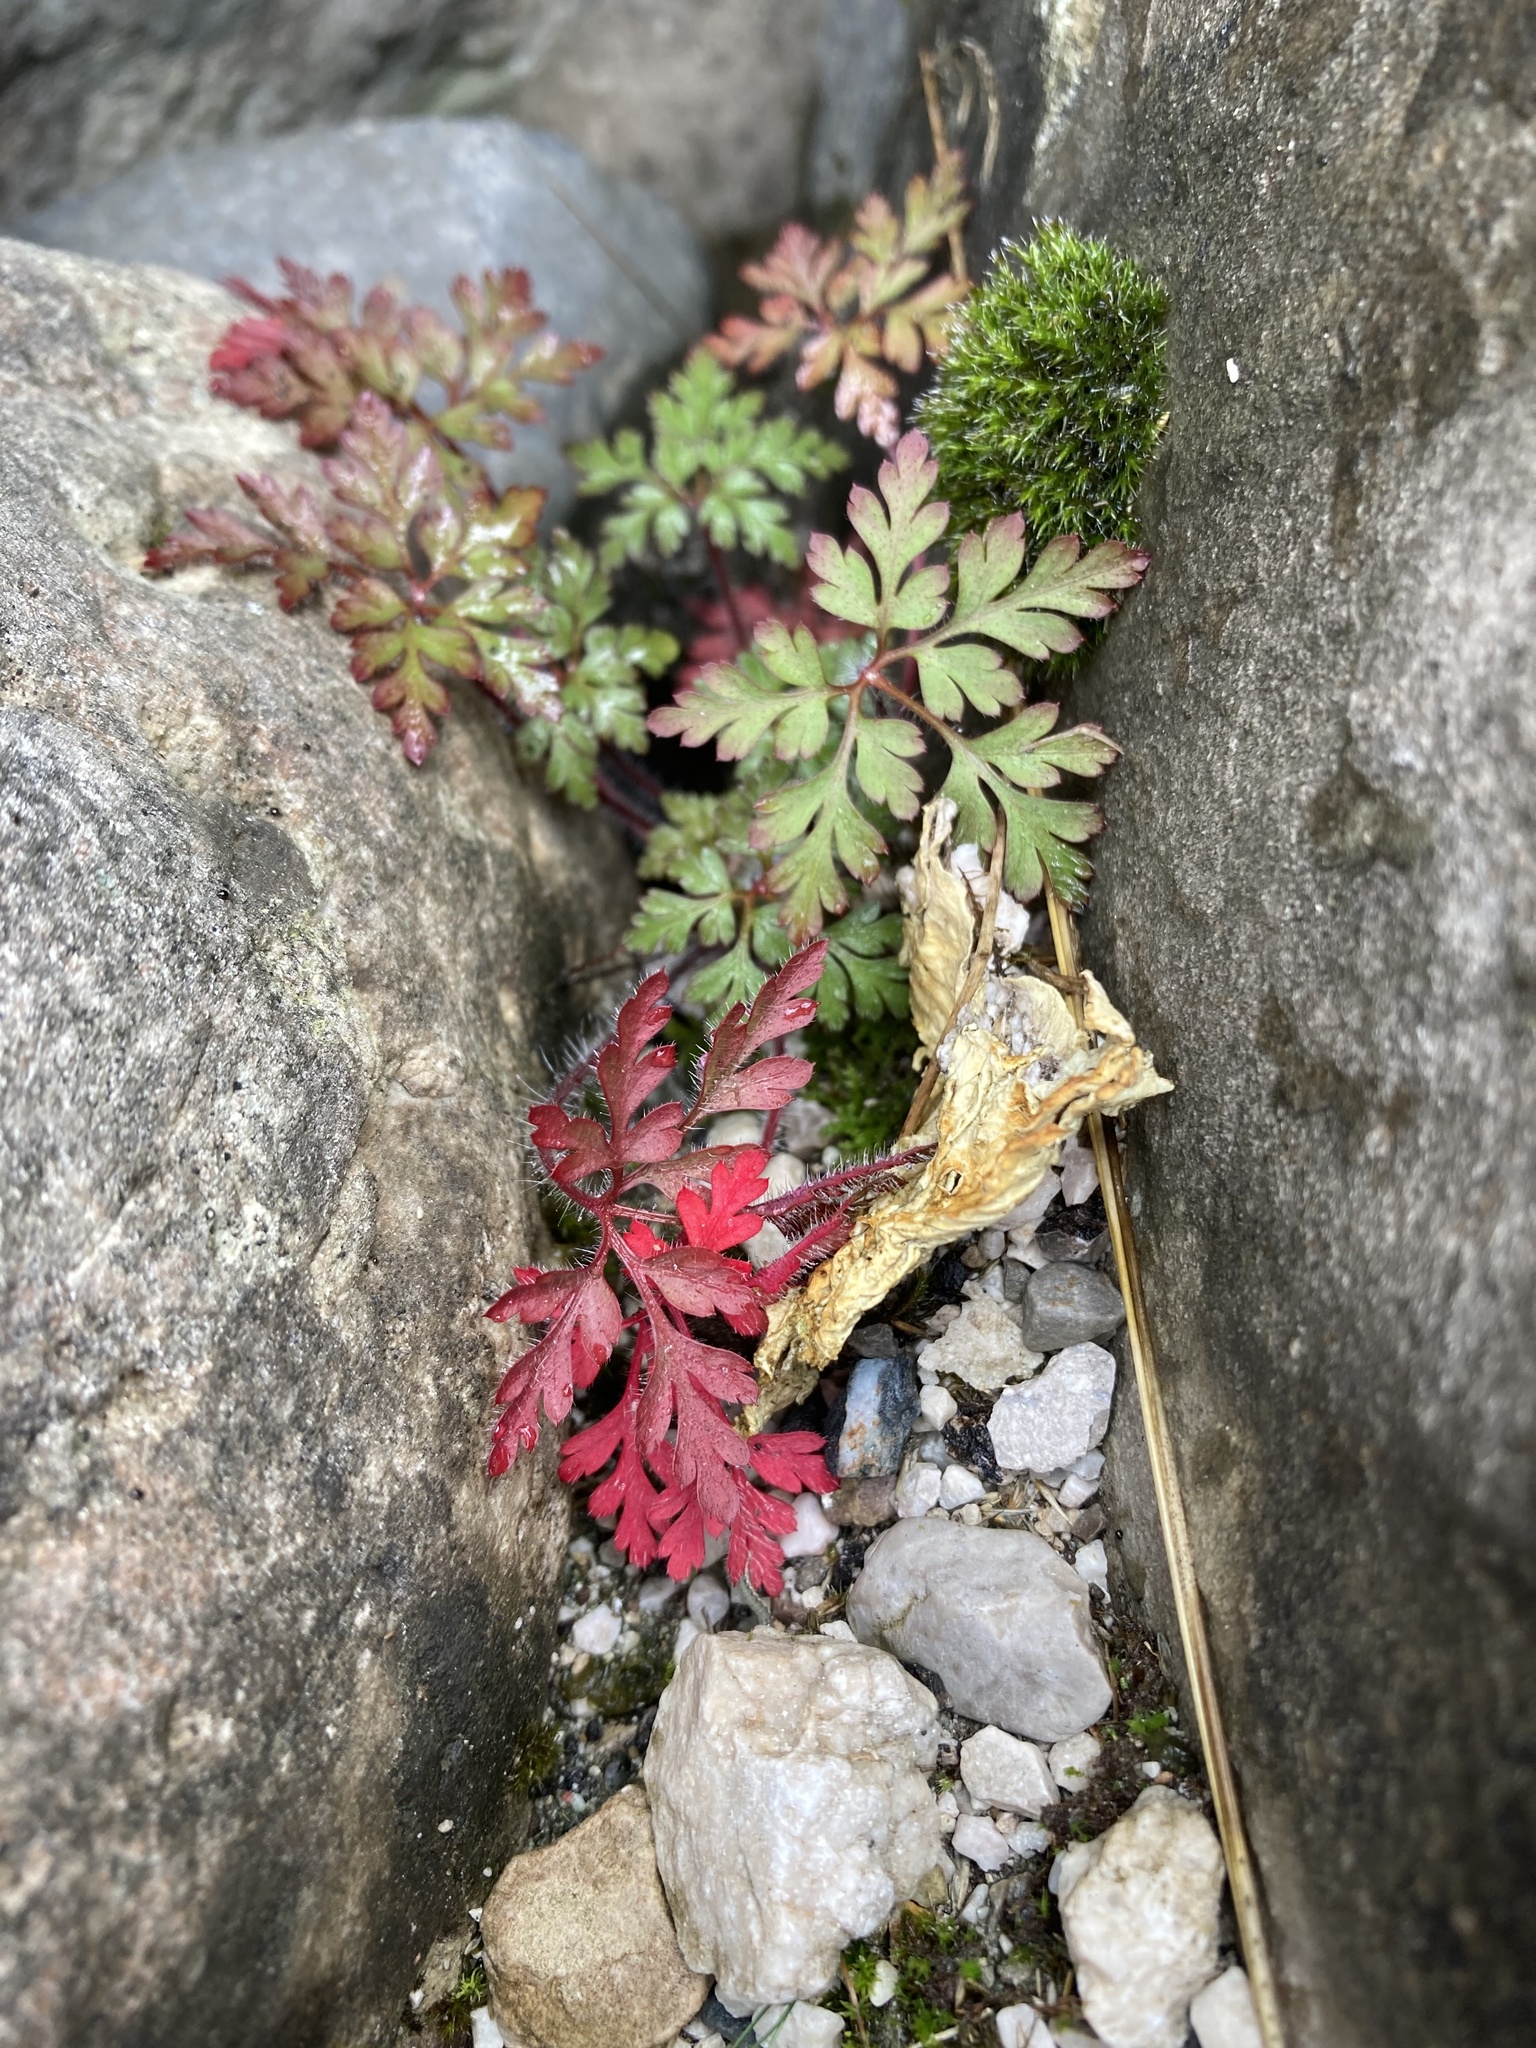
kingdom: Plantae
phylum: Tracheophyta
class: Magnoliopsida
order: Geraniales
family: Geraniaceae
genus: Geranium
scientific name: Geranium robertianum
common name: Herb-robert
